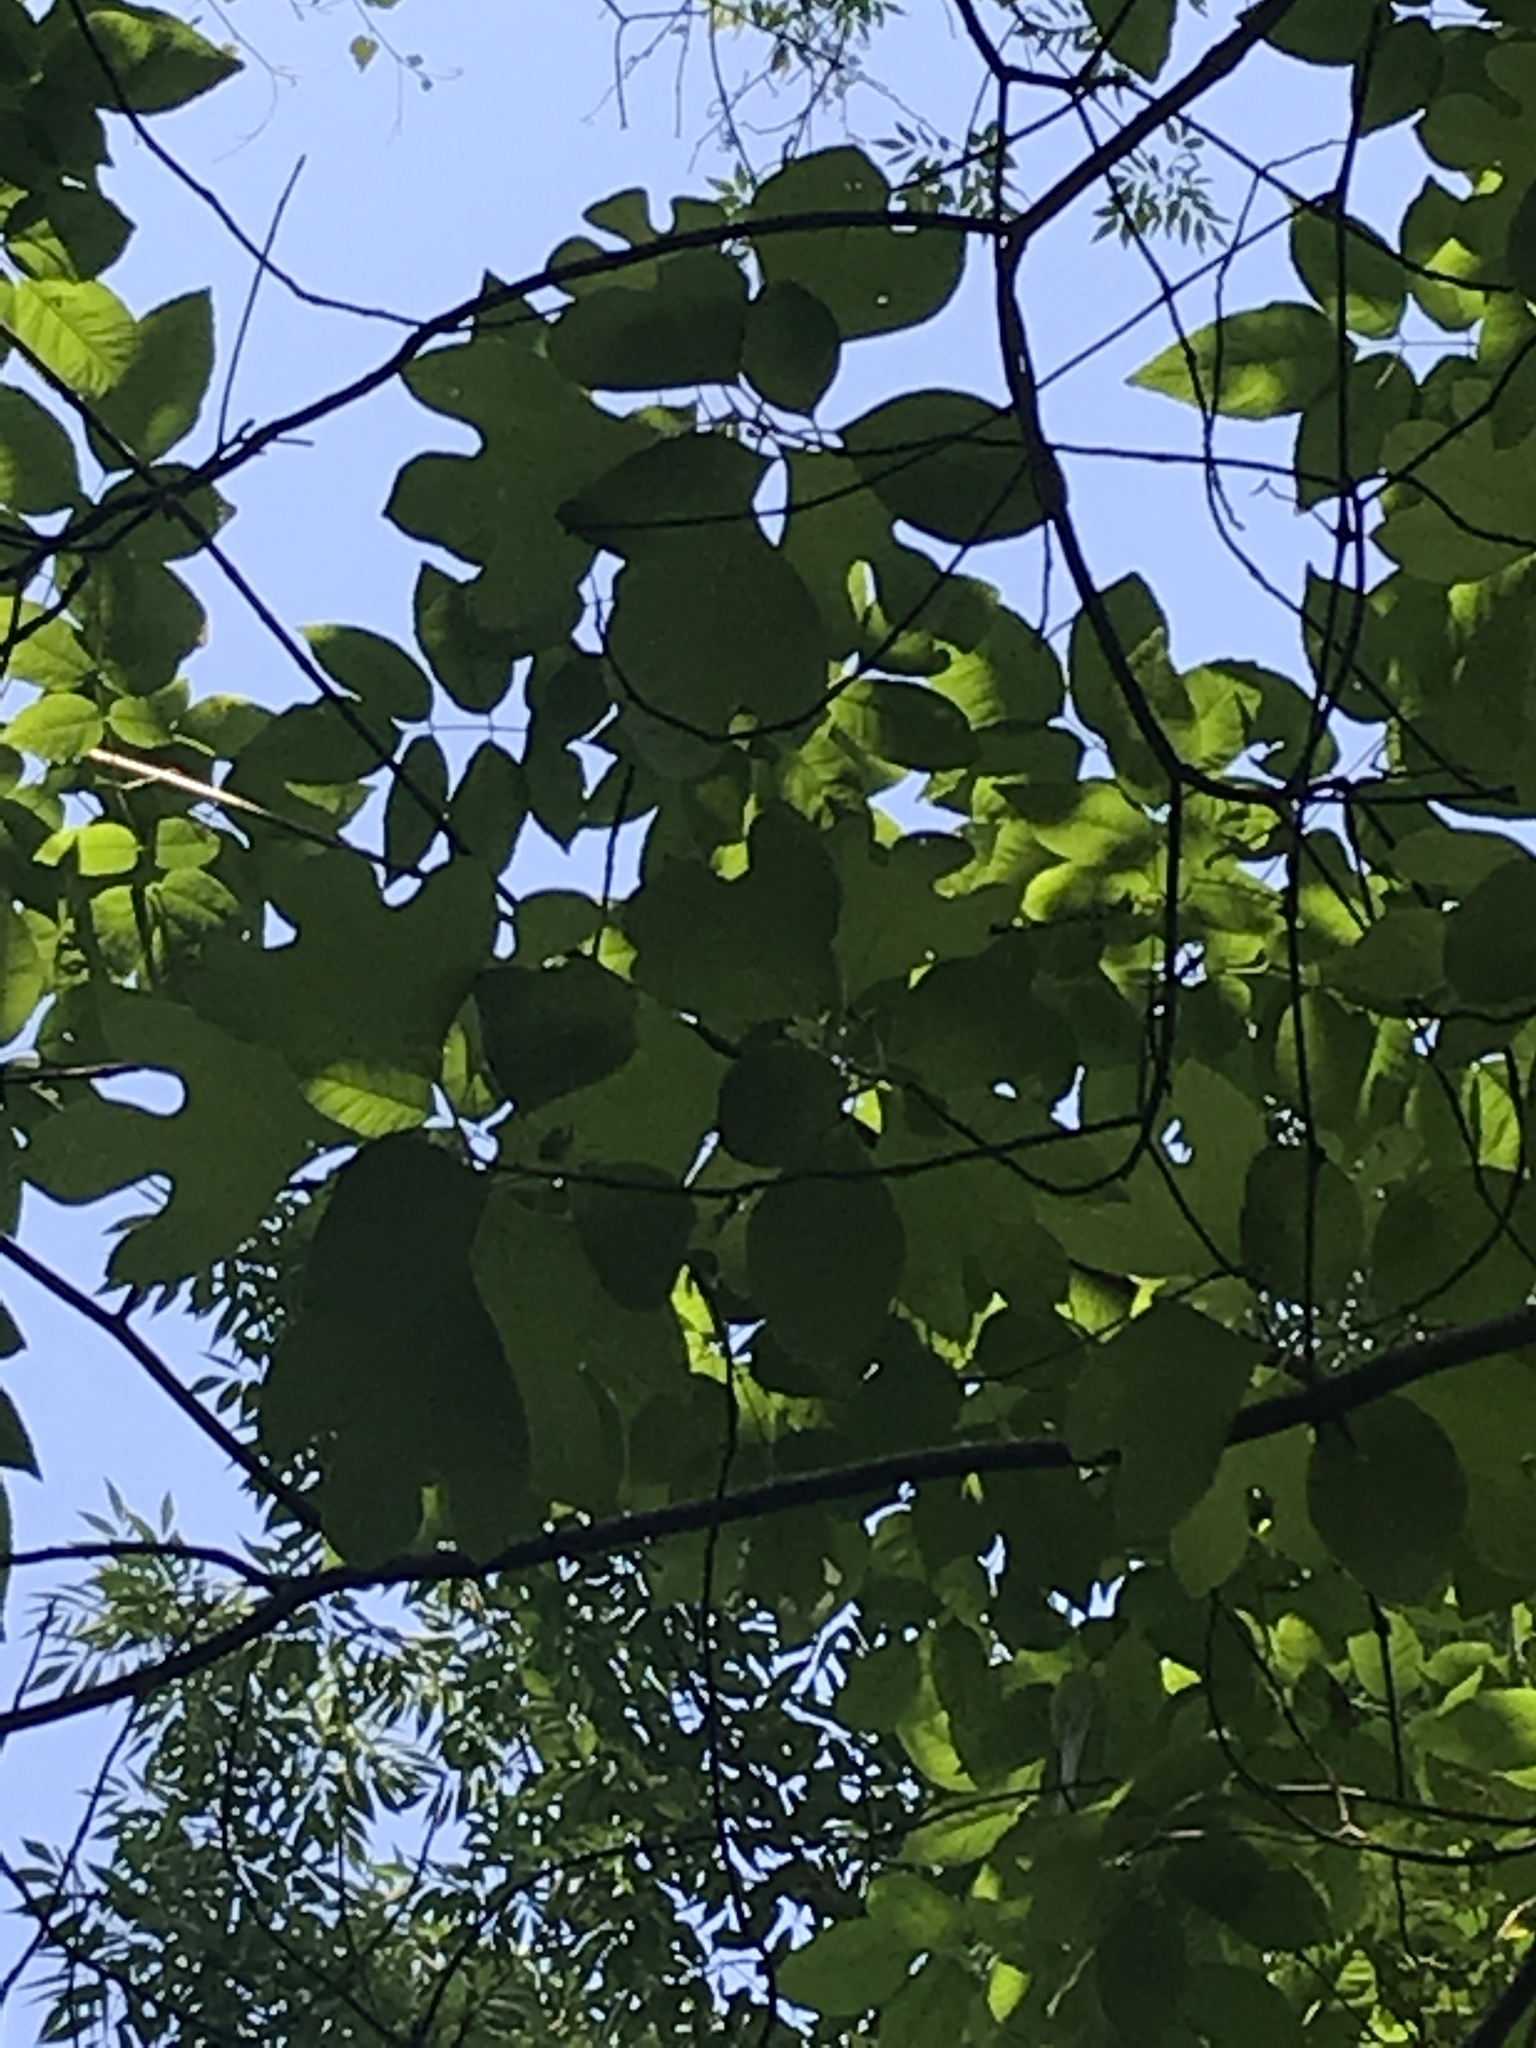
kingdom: Plantae
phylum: Tracheophyta
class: Magnoliopsida
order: Laurales
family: Lauraceae
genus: Sassafras
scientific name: Sassafras albidum
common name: Sassafras
